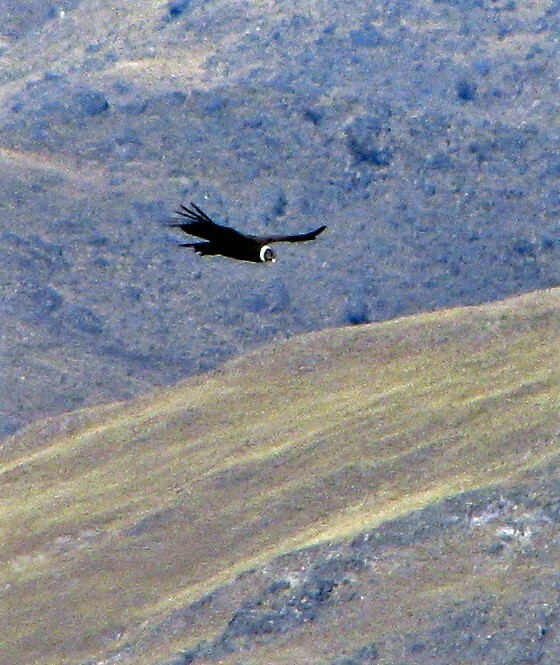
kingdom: Animalia
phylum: Chordata
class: Aves
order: Accipitriformes
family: Cathartidae
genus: Vultur
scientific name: Vultur gryphus
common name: Andean condor
